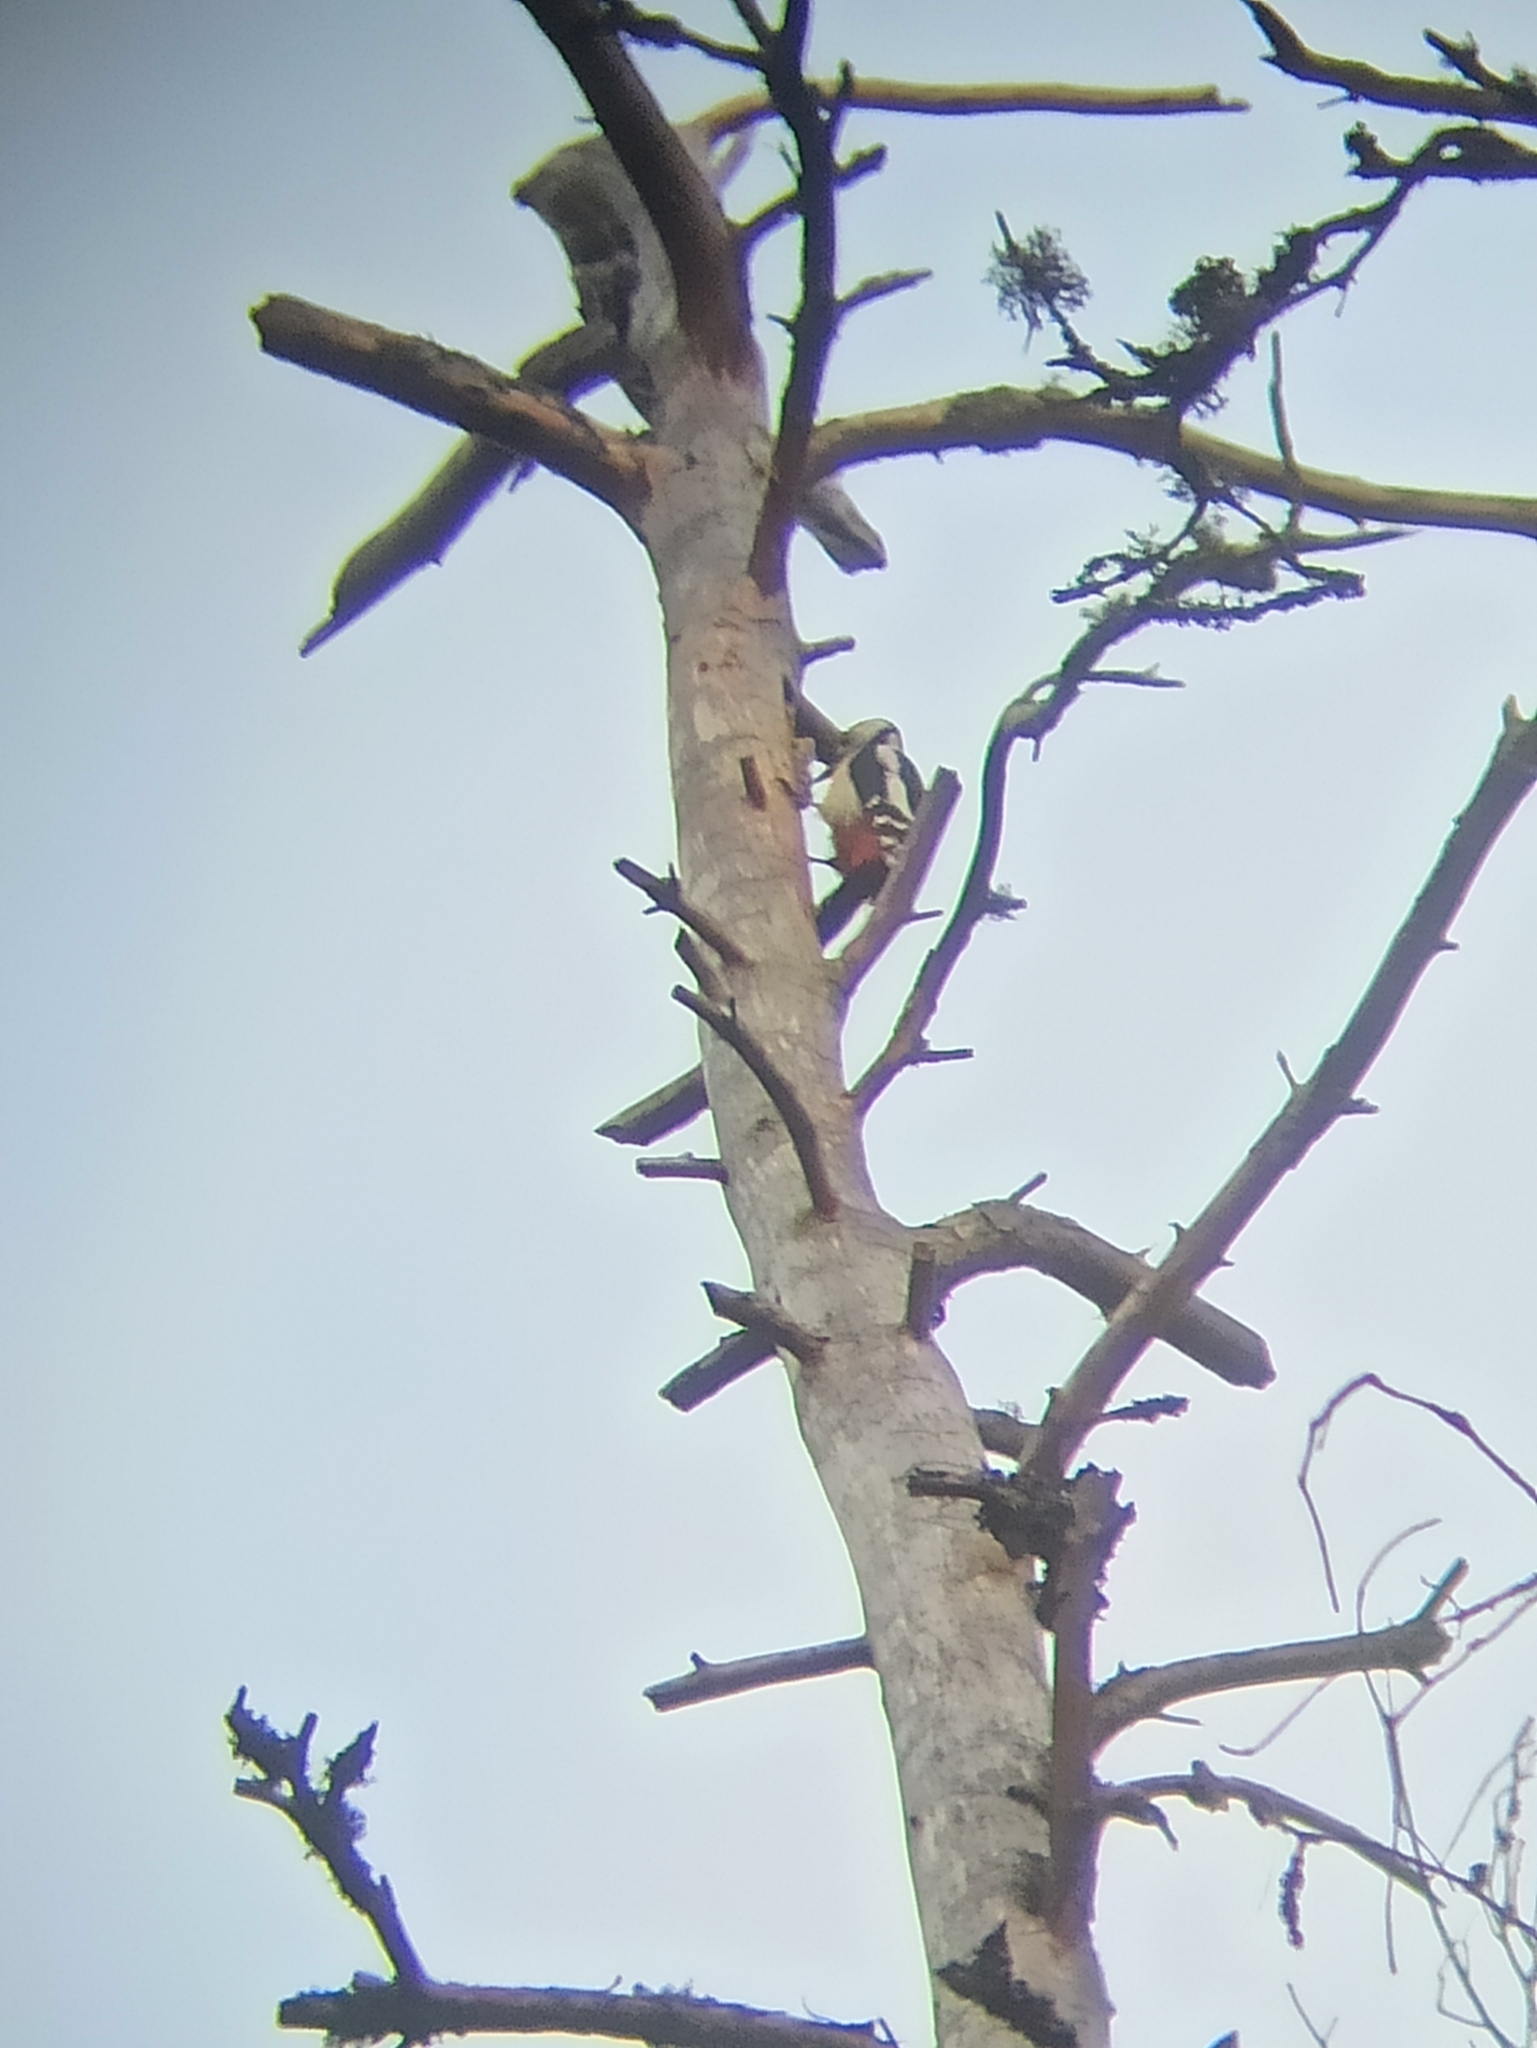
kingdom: Animalia
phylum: Chordata
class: Aves
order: Piciformes
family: Picidae
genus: Dendrocopos
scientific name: Dendrocopos major
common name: Great spotted woodpecker
